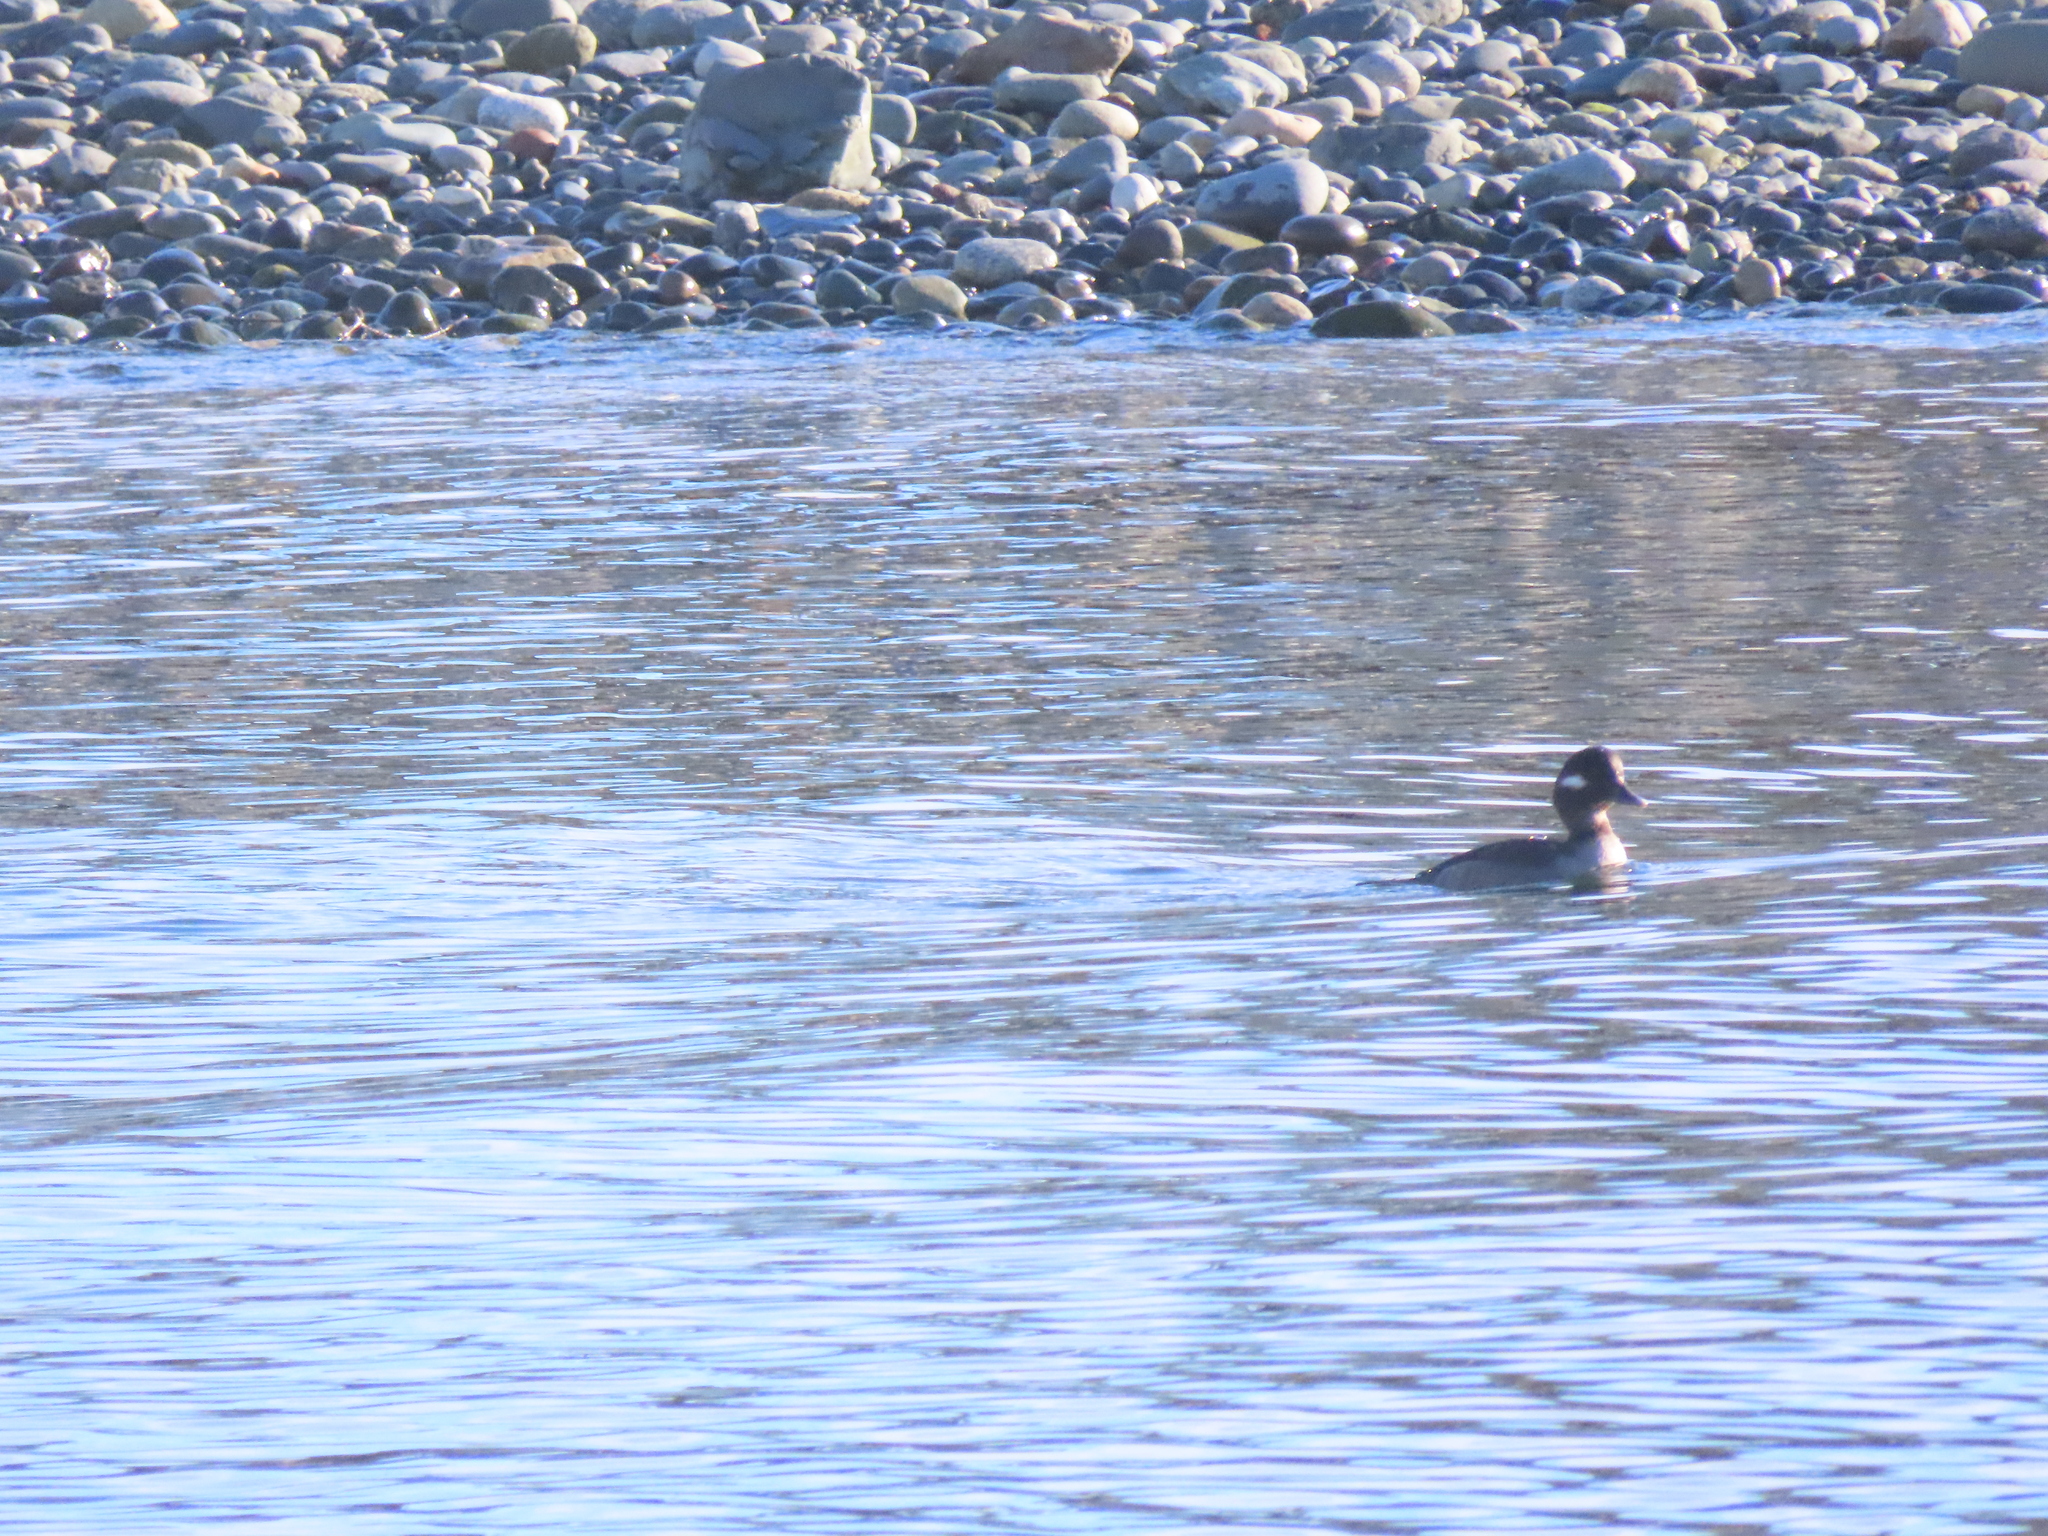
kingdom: Animalia
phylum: Chordata
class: Aves
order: Anseriformes
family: Anatidae
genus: Bucephala
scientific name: Bucephala albeola
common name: Bufflehead
